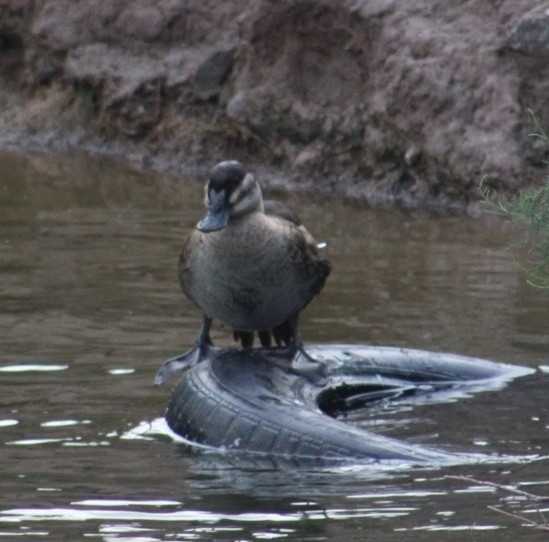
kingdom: Animalia
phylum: Chordata
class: Aves
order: Anseriformes
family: Anatidae
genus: Oxyura
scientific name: Oxyura jamaicensis
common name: Ruddy duck
